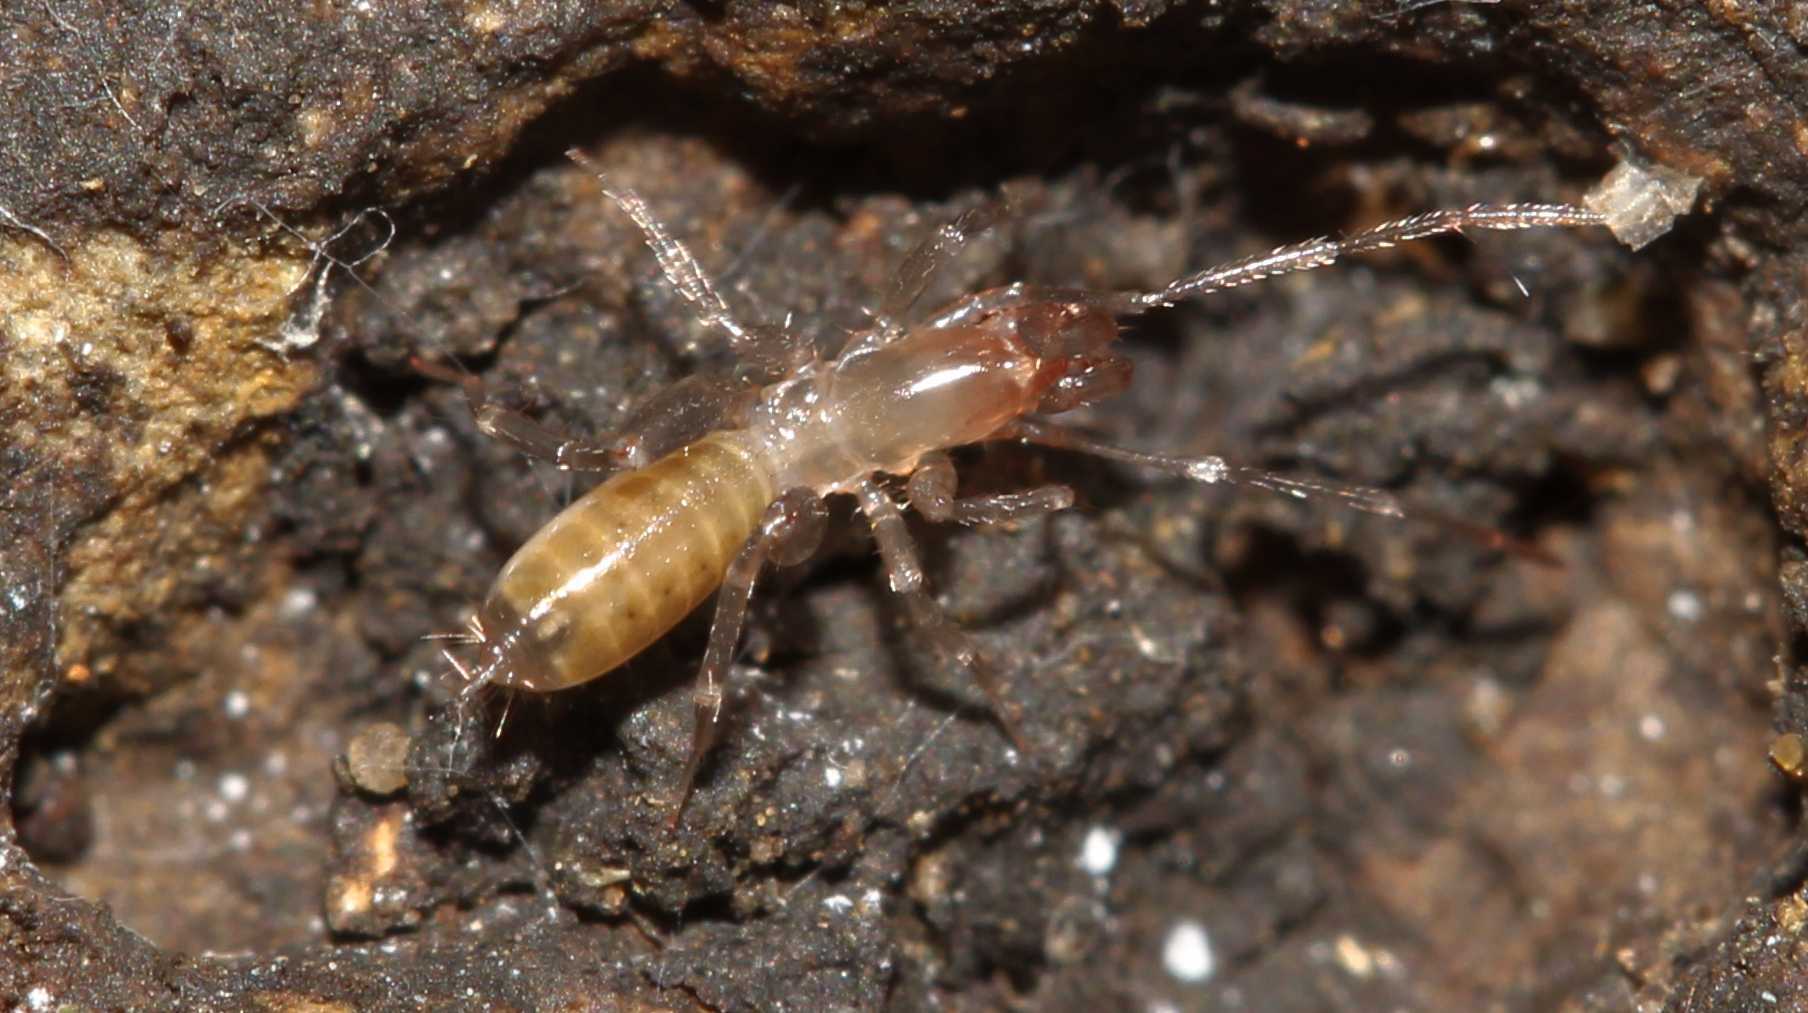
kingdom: Animalia
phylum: Arthropoda
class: Arachnida
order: Schizomida
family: Hubbardiidae
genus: Ambulantactus
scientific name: Ambulantactus
